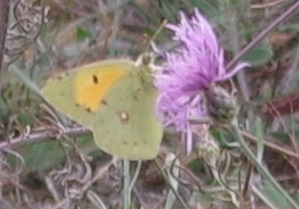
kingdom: Animalia
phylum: Arthropoda
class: Insecta
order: Lepidoptera
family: Pieridae
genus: Colias
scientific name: Colias croceus
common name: Clouded yellow
